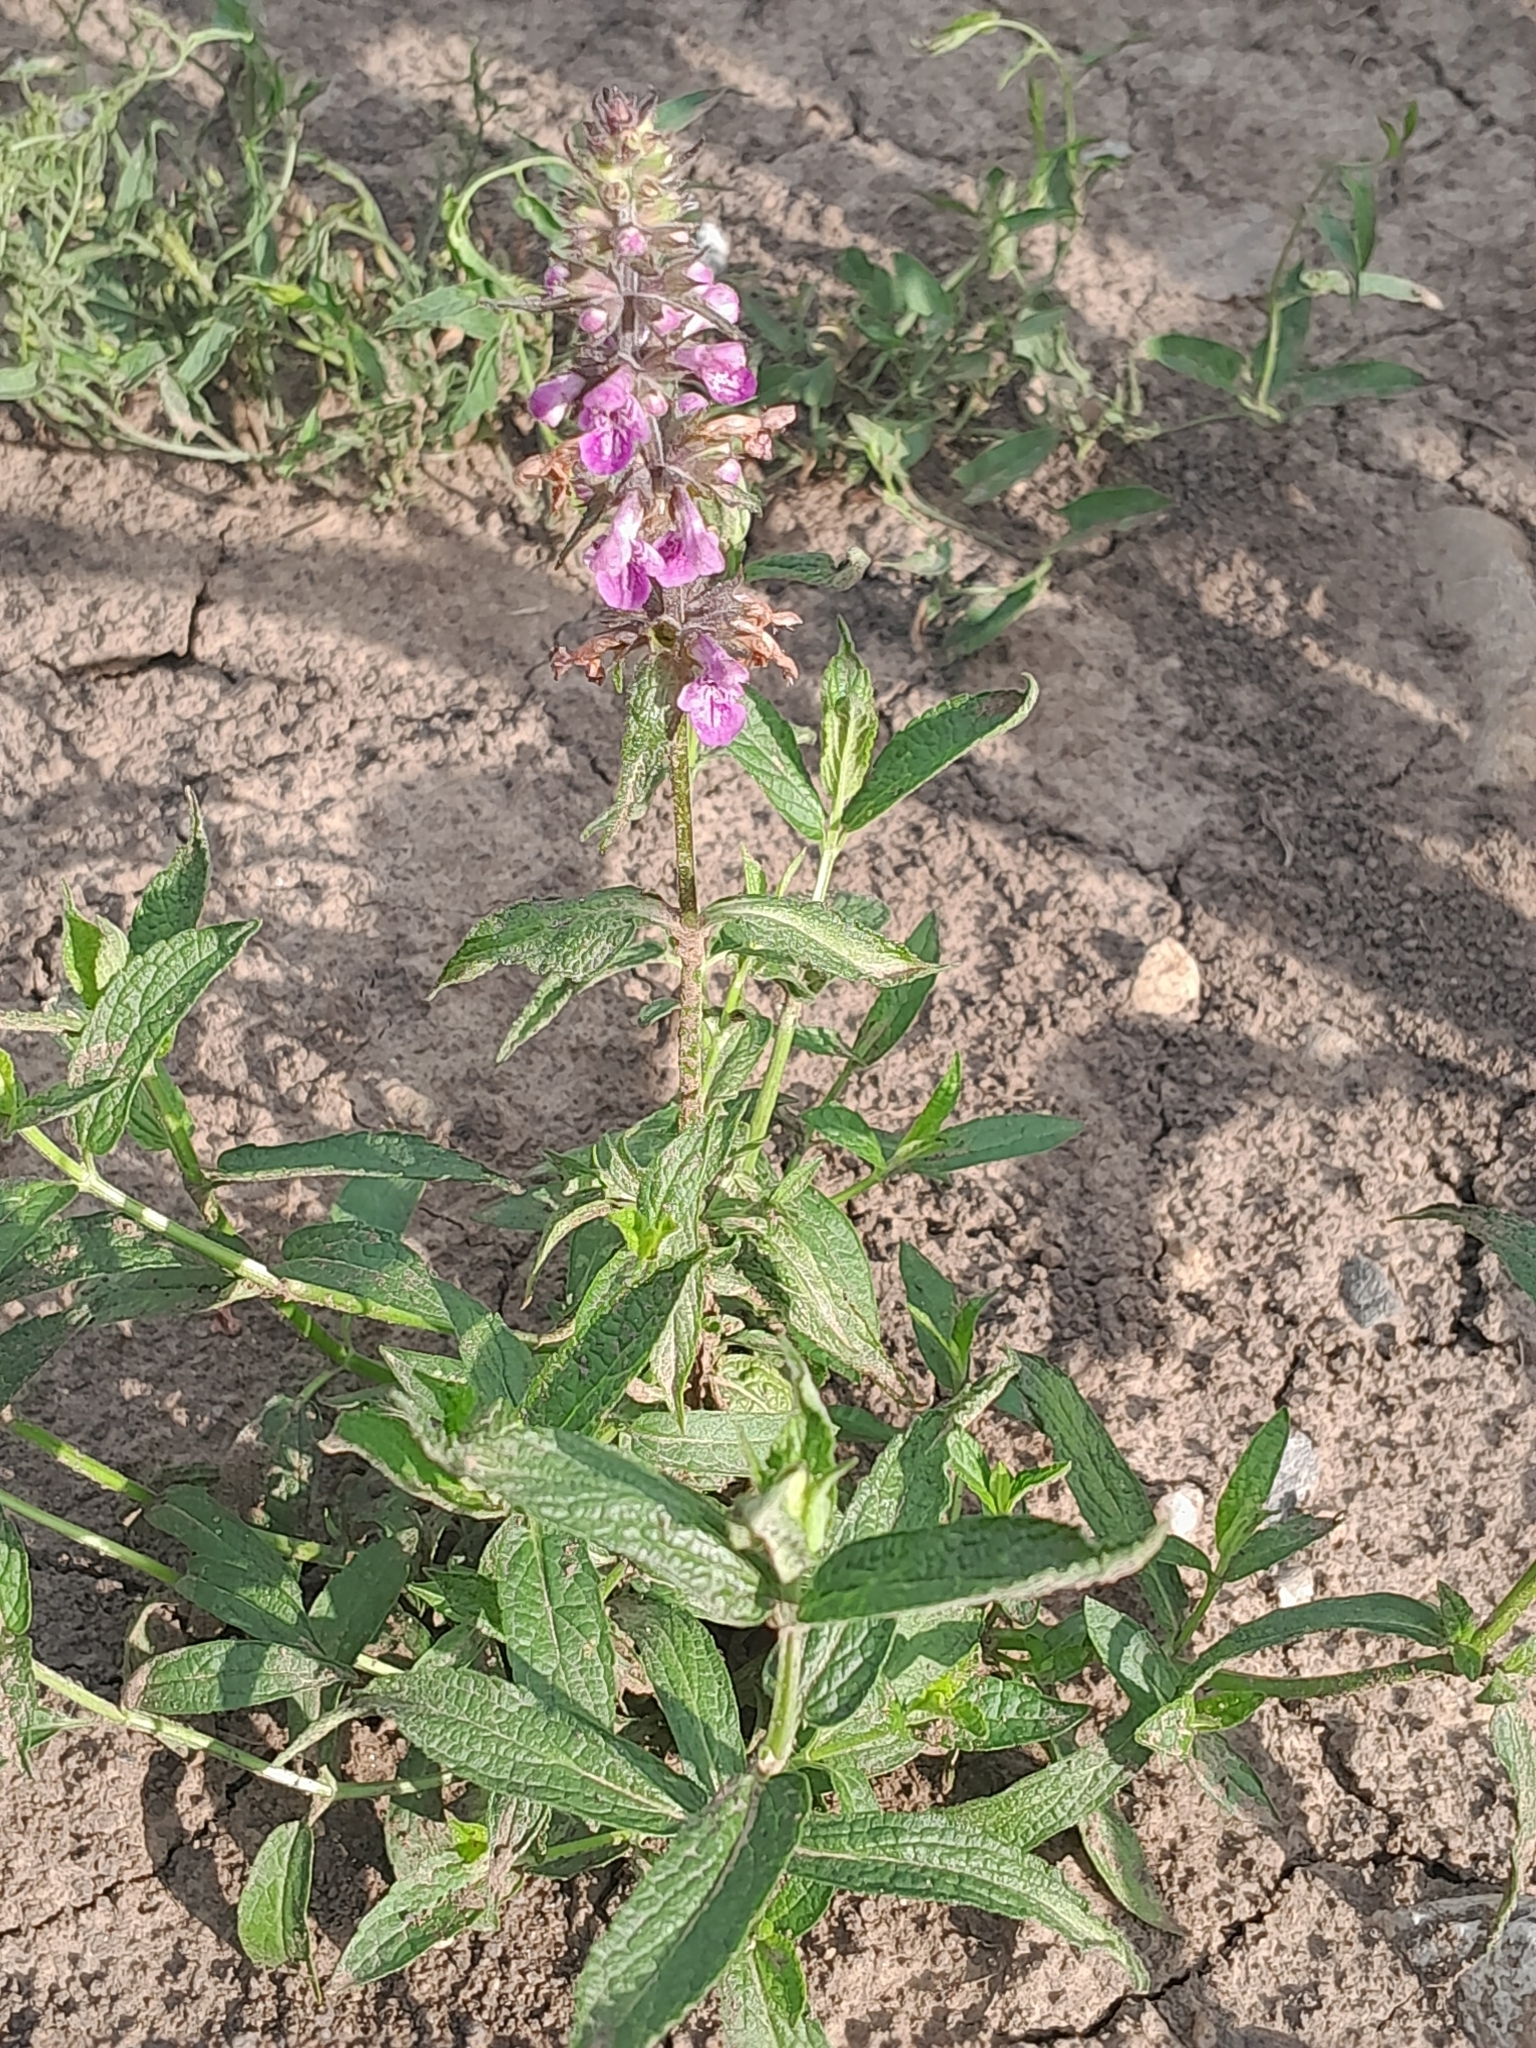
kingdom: Plantae
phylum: Tracheophyta
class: Magnoliopsida
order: Lamiales
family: Lamiaceae
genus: Stachys
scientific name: Stachys palustris
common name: Marsh woundwort
